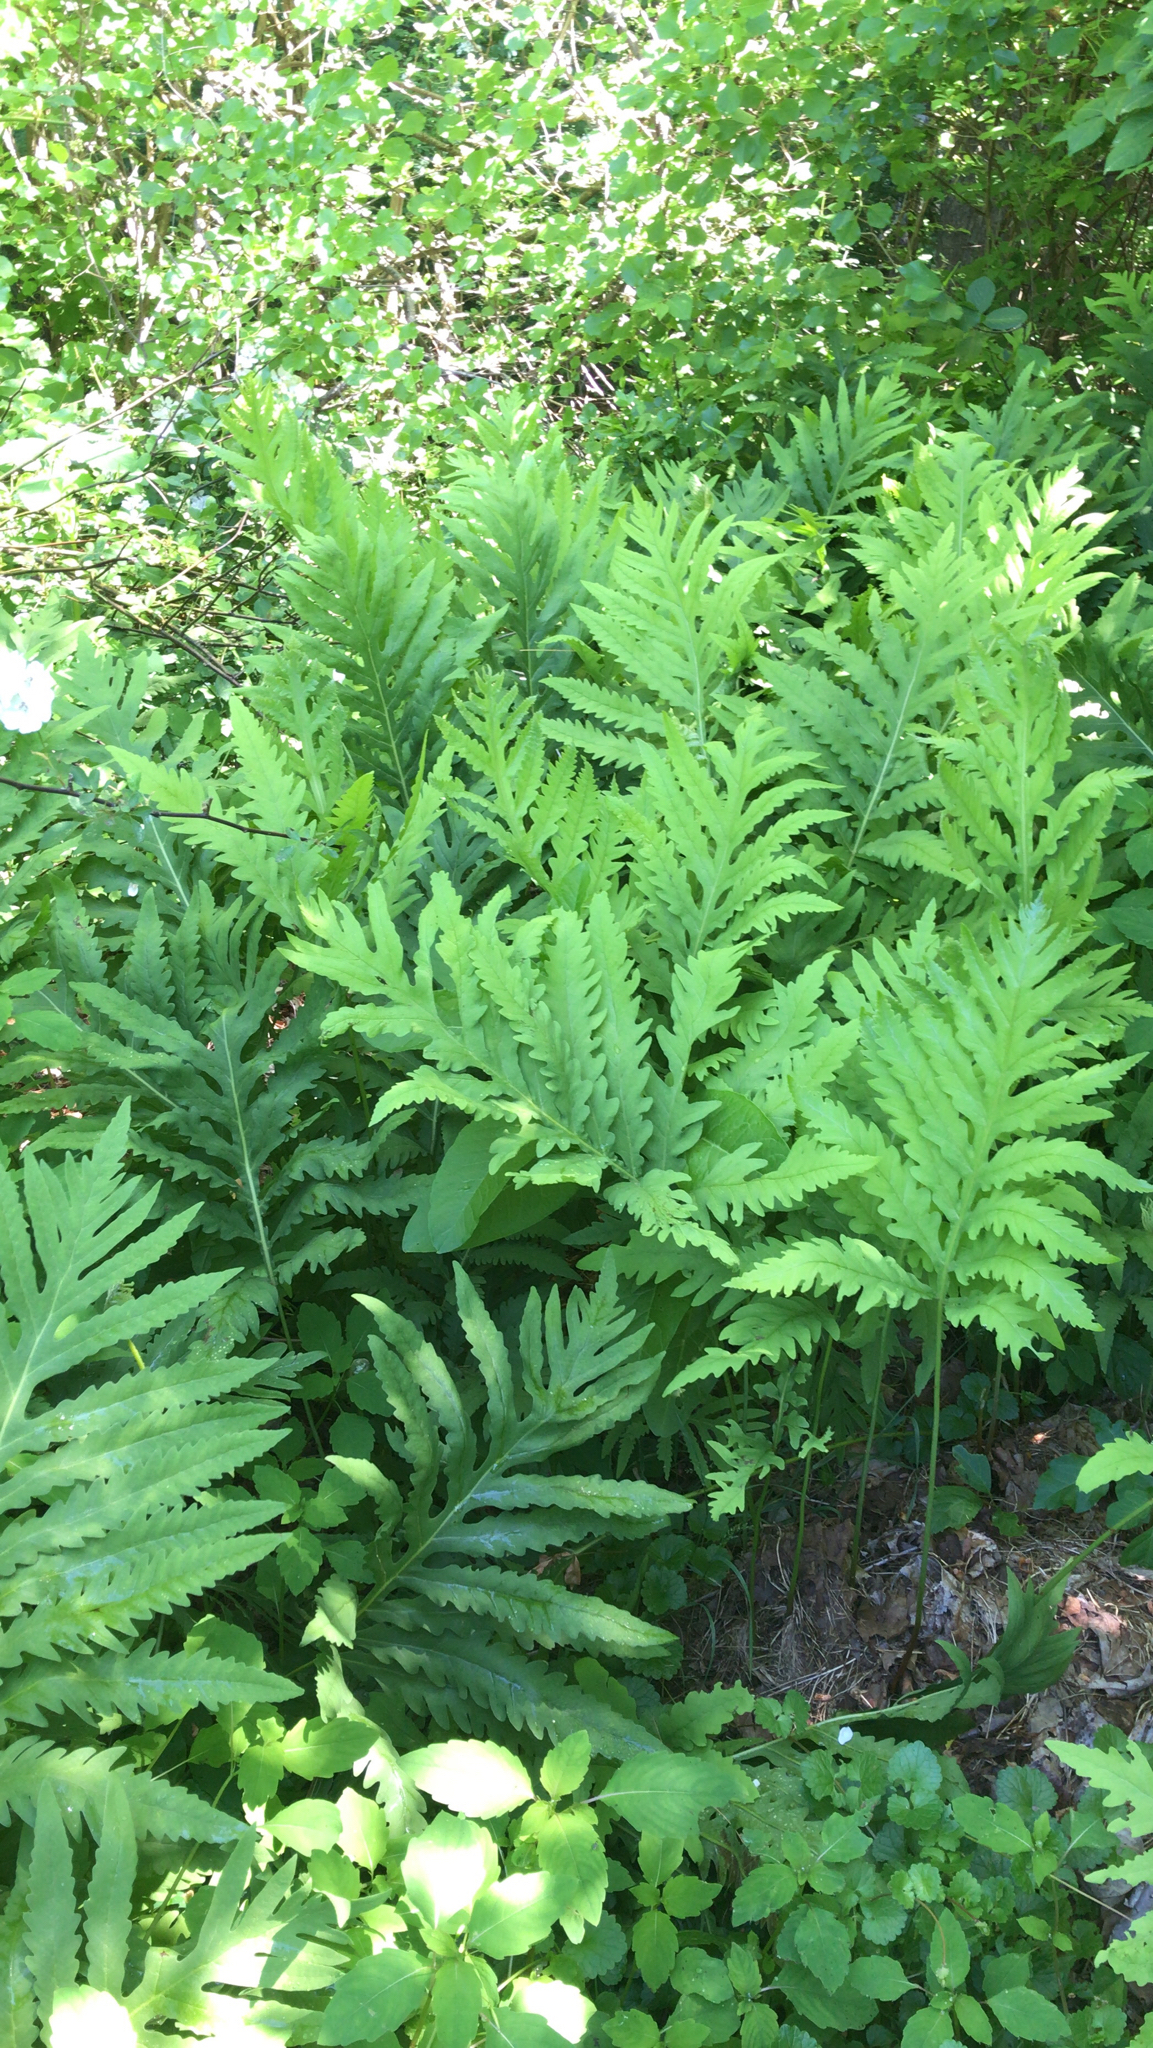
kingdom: Plantae
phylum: Tracheophyta
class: Polypodiopsida
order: Polypodiales
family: Onocleaceae
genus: Onoclea
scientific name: Onoclea sensibilis
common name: Sensitive fern
